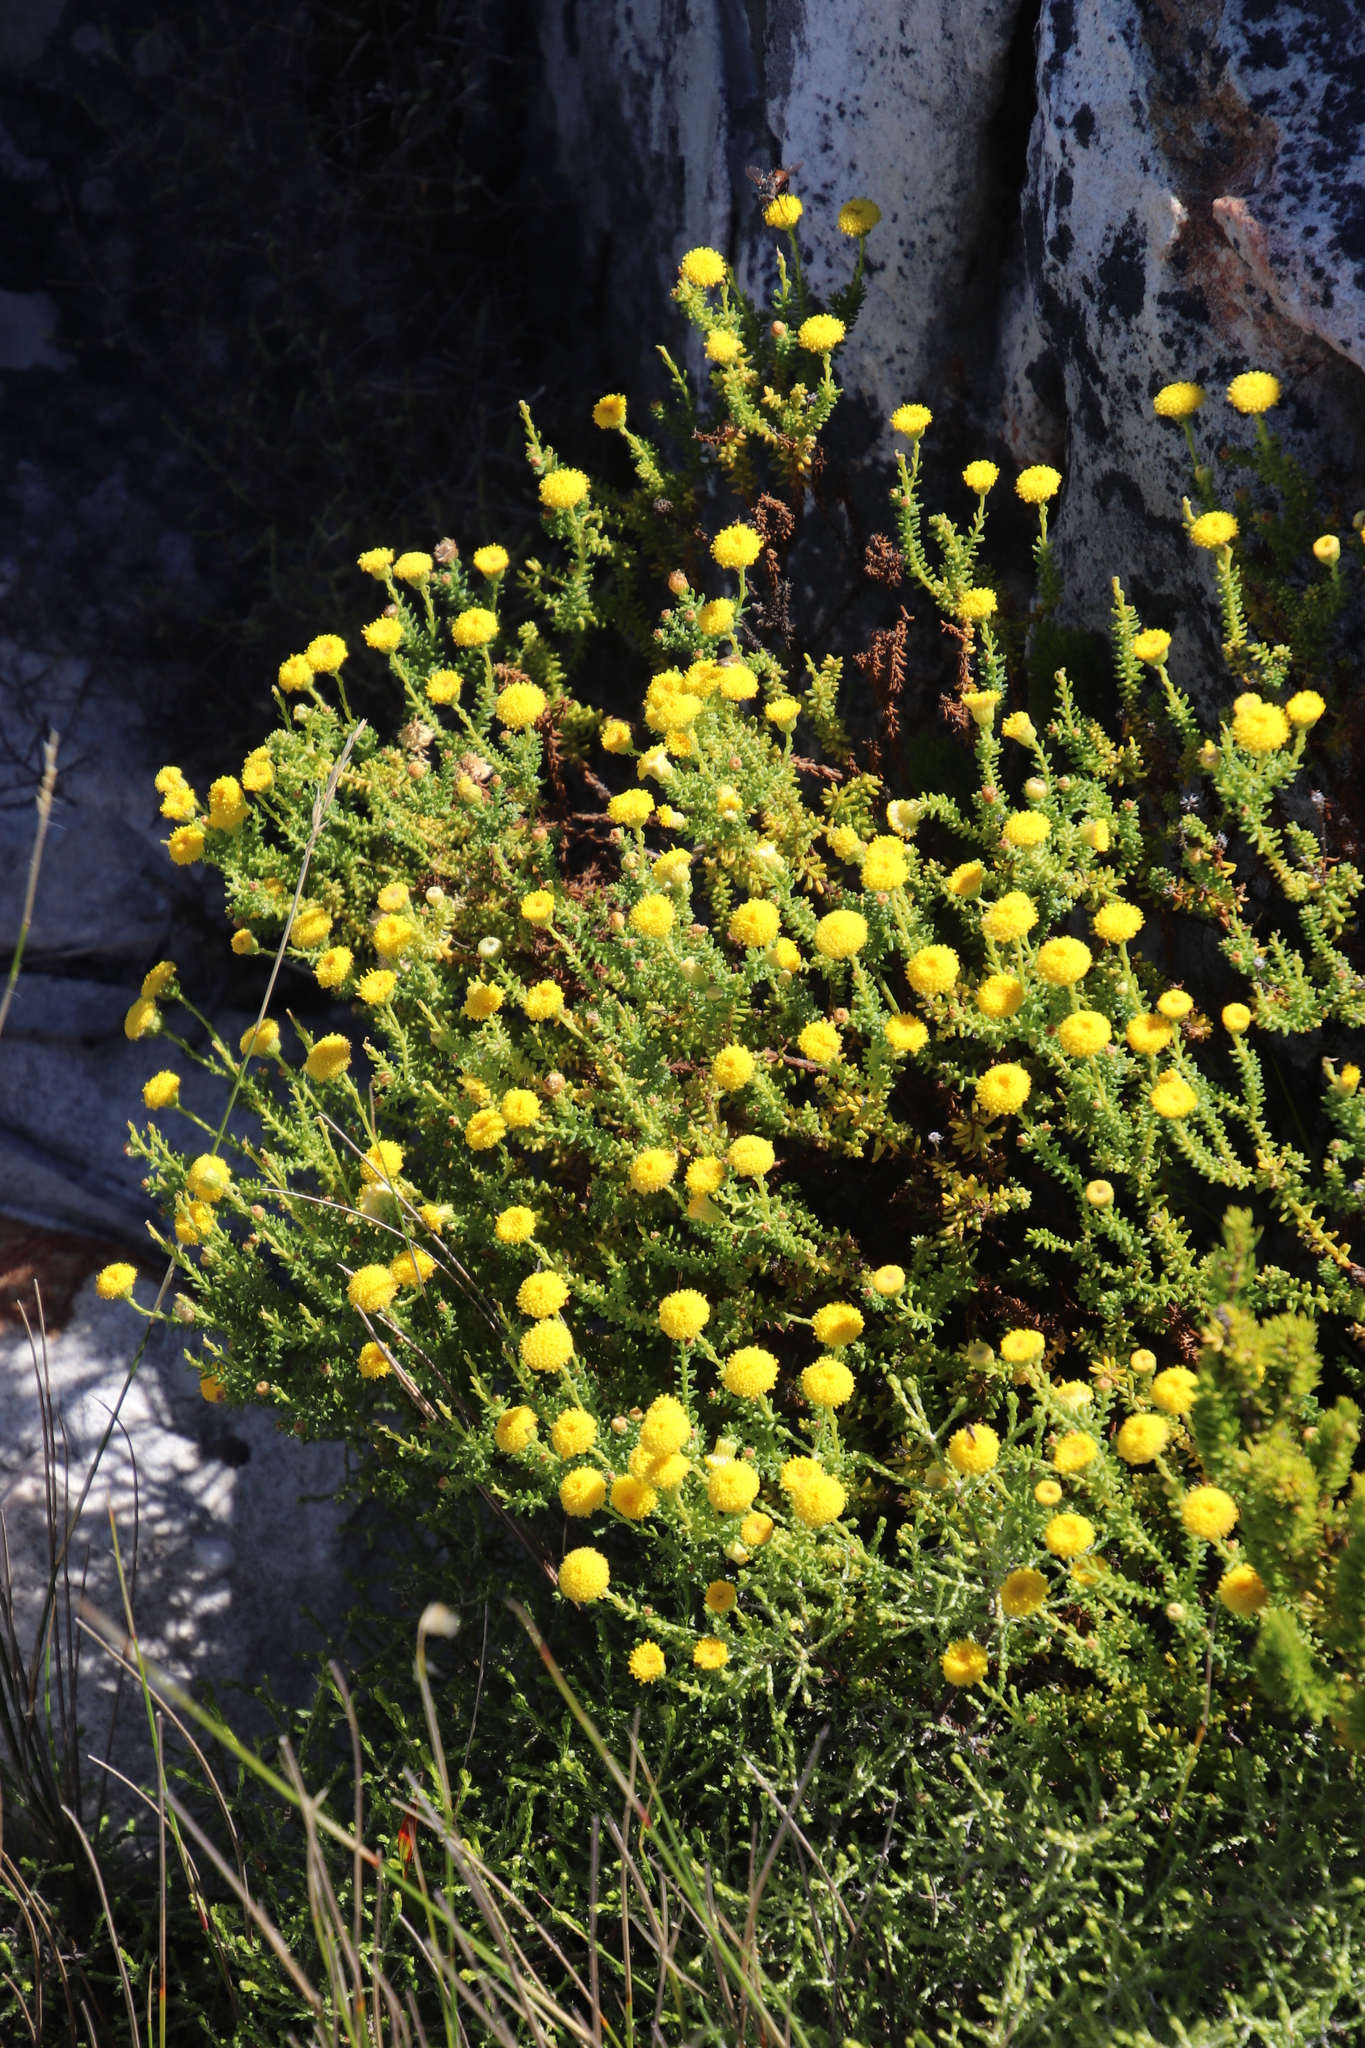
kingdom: Plantae
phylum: Tracheophyta
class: Magnoliopsida
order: Asterales
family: Asteraceae
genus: Chrysocoma
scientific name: Chrysocoma cernua
